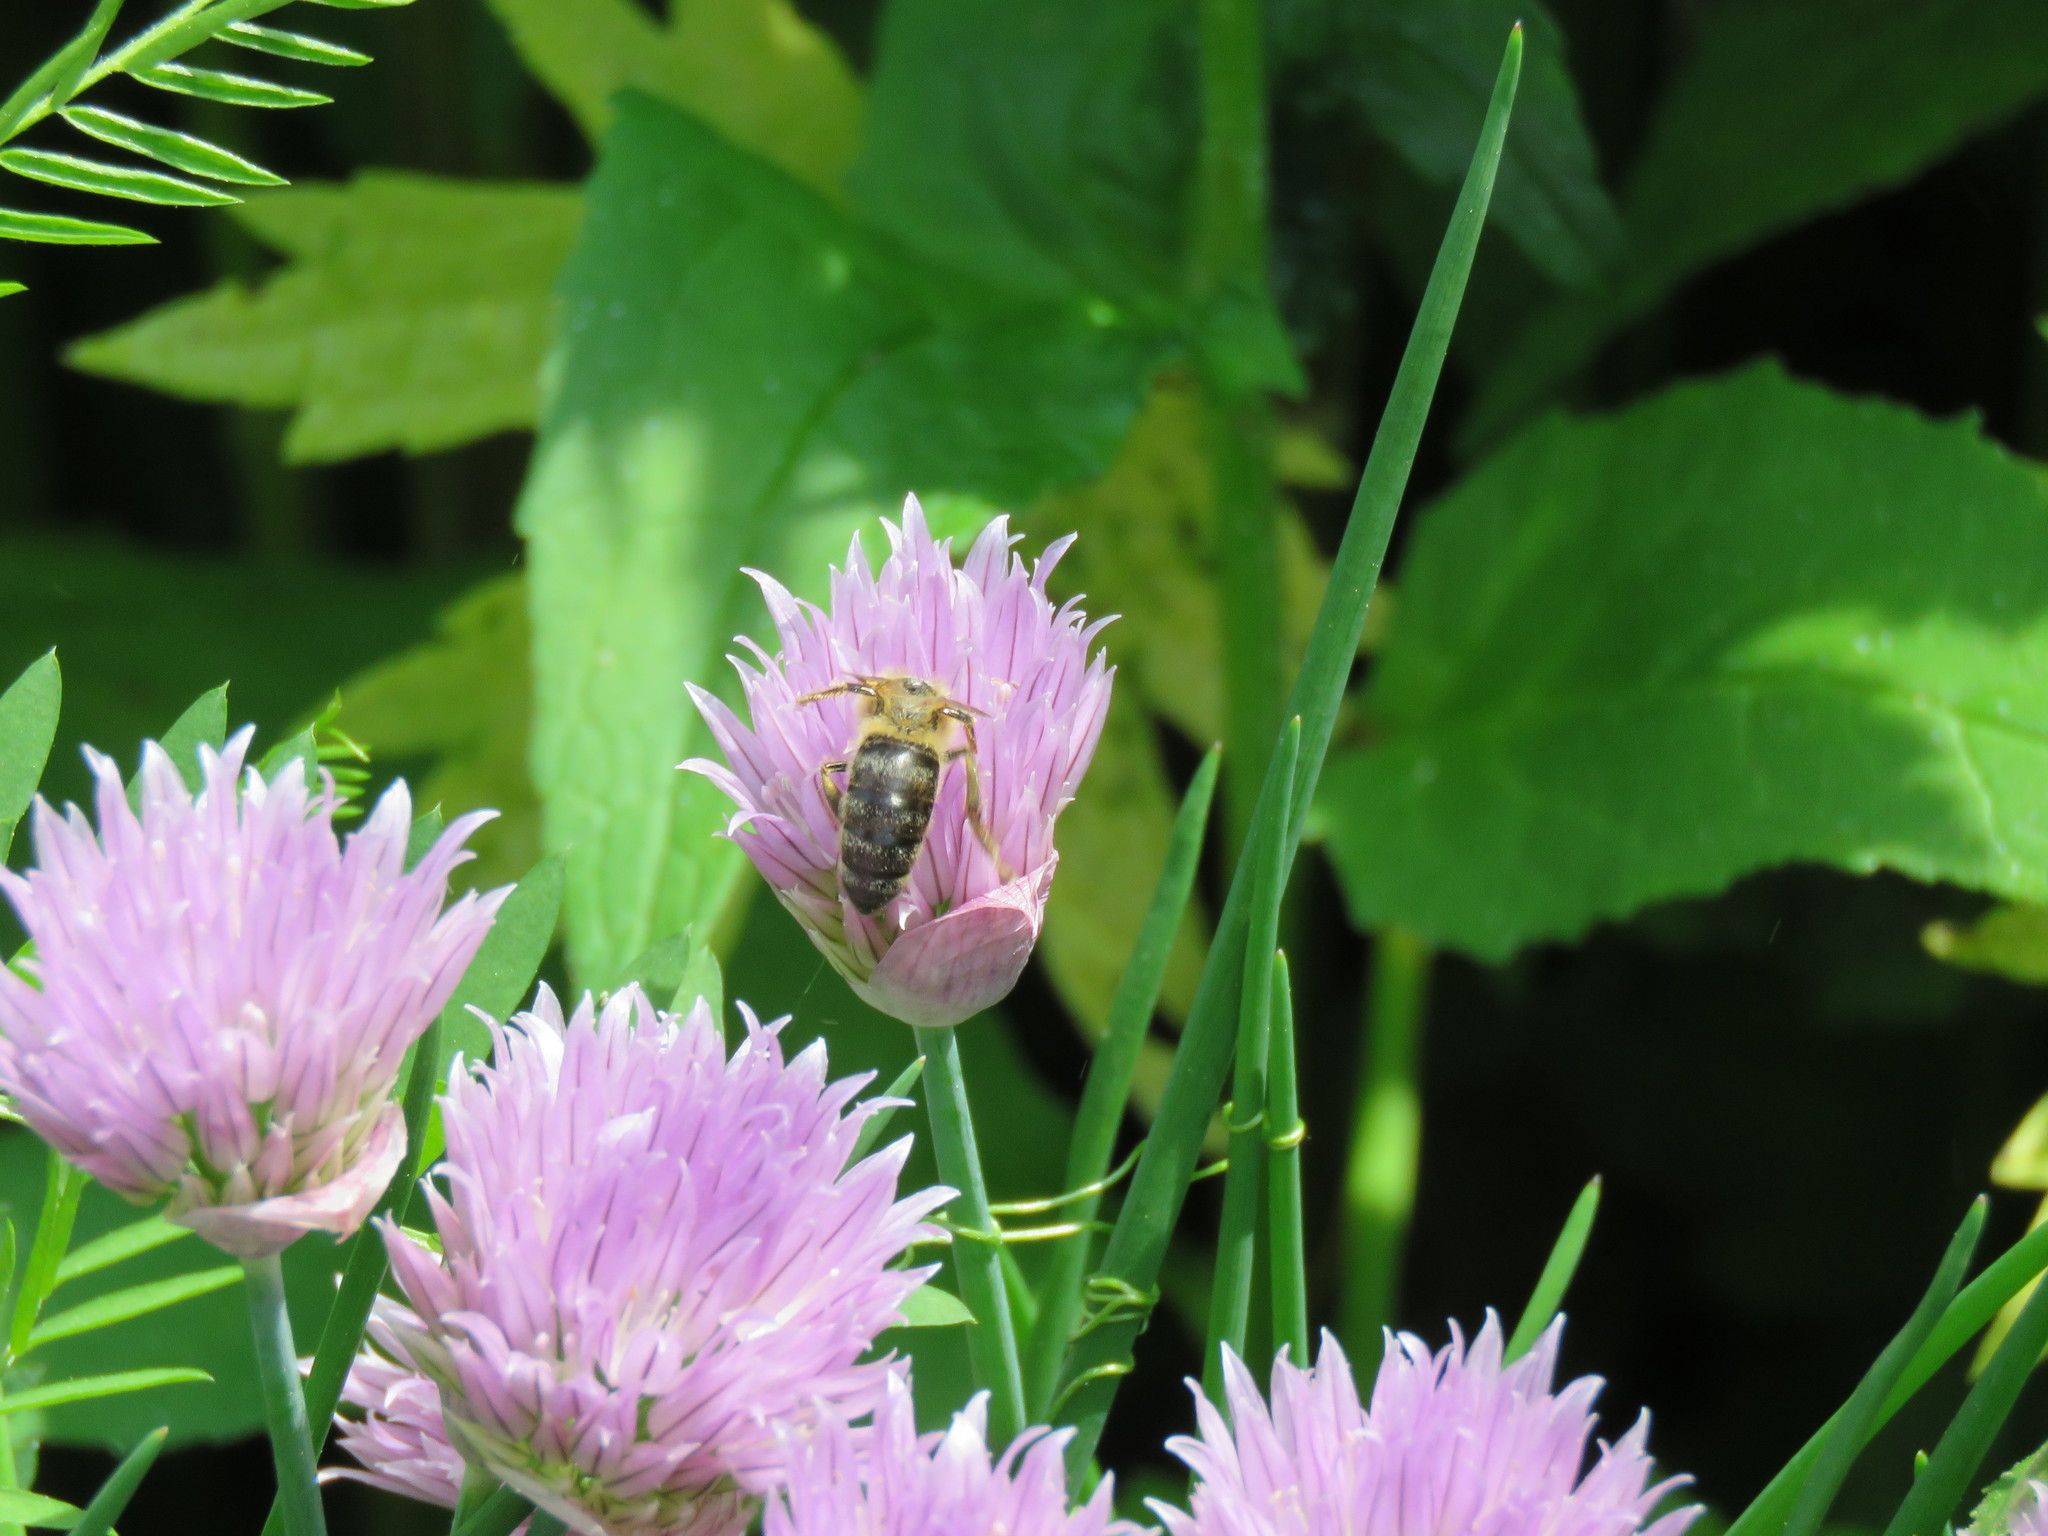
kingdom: Animalia
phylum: Arthropoda
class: Insecta
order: Hymenoptera
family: Apidae
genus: Apis
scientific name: Apis mellifera
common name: Honey bee
